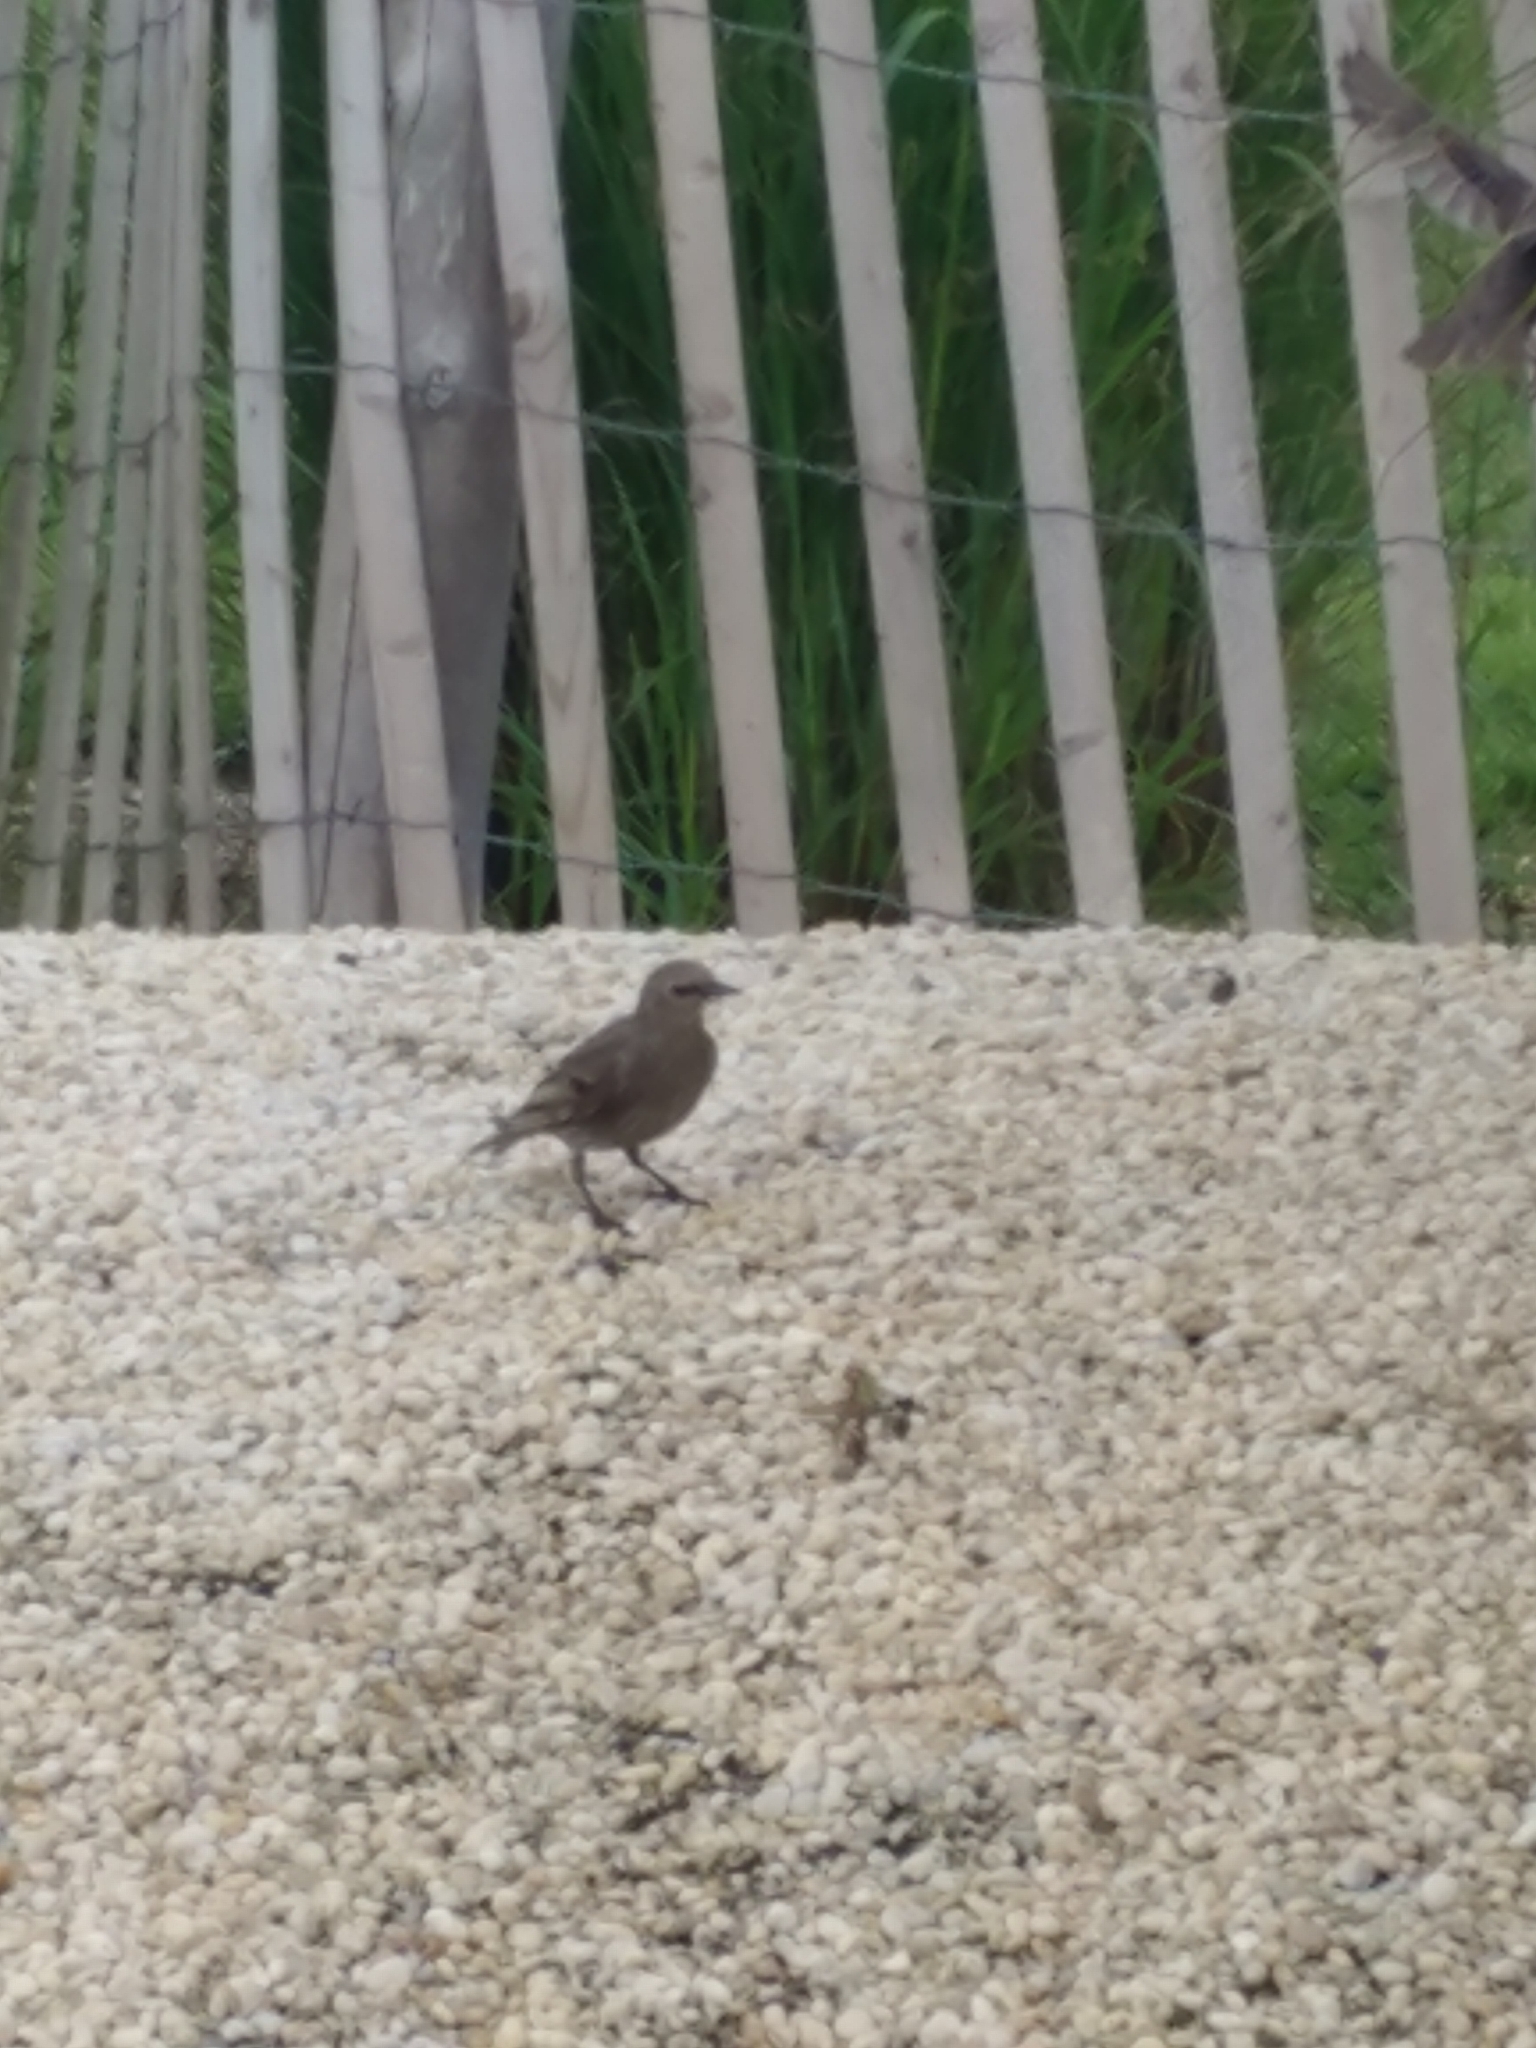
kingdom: Animalia
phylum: Chordata
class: Aves
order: Passeriformes
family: Sturnidae
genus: Sturnus
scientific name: Sturnus vulgaris
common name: Common starling
